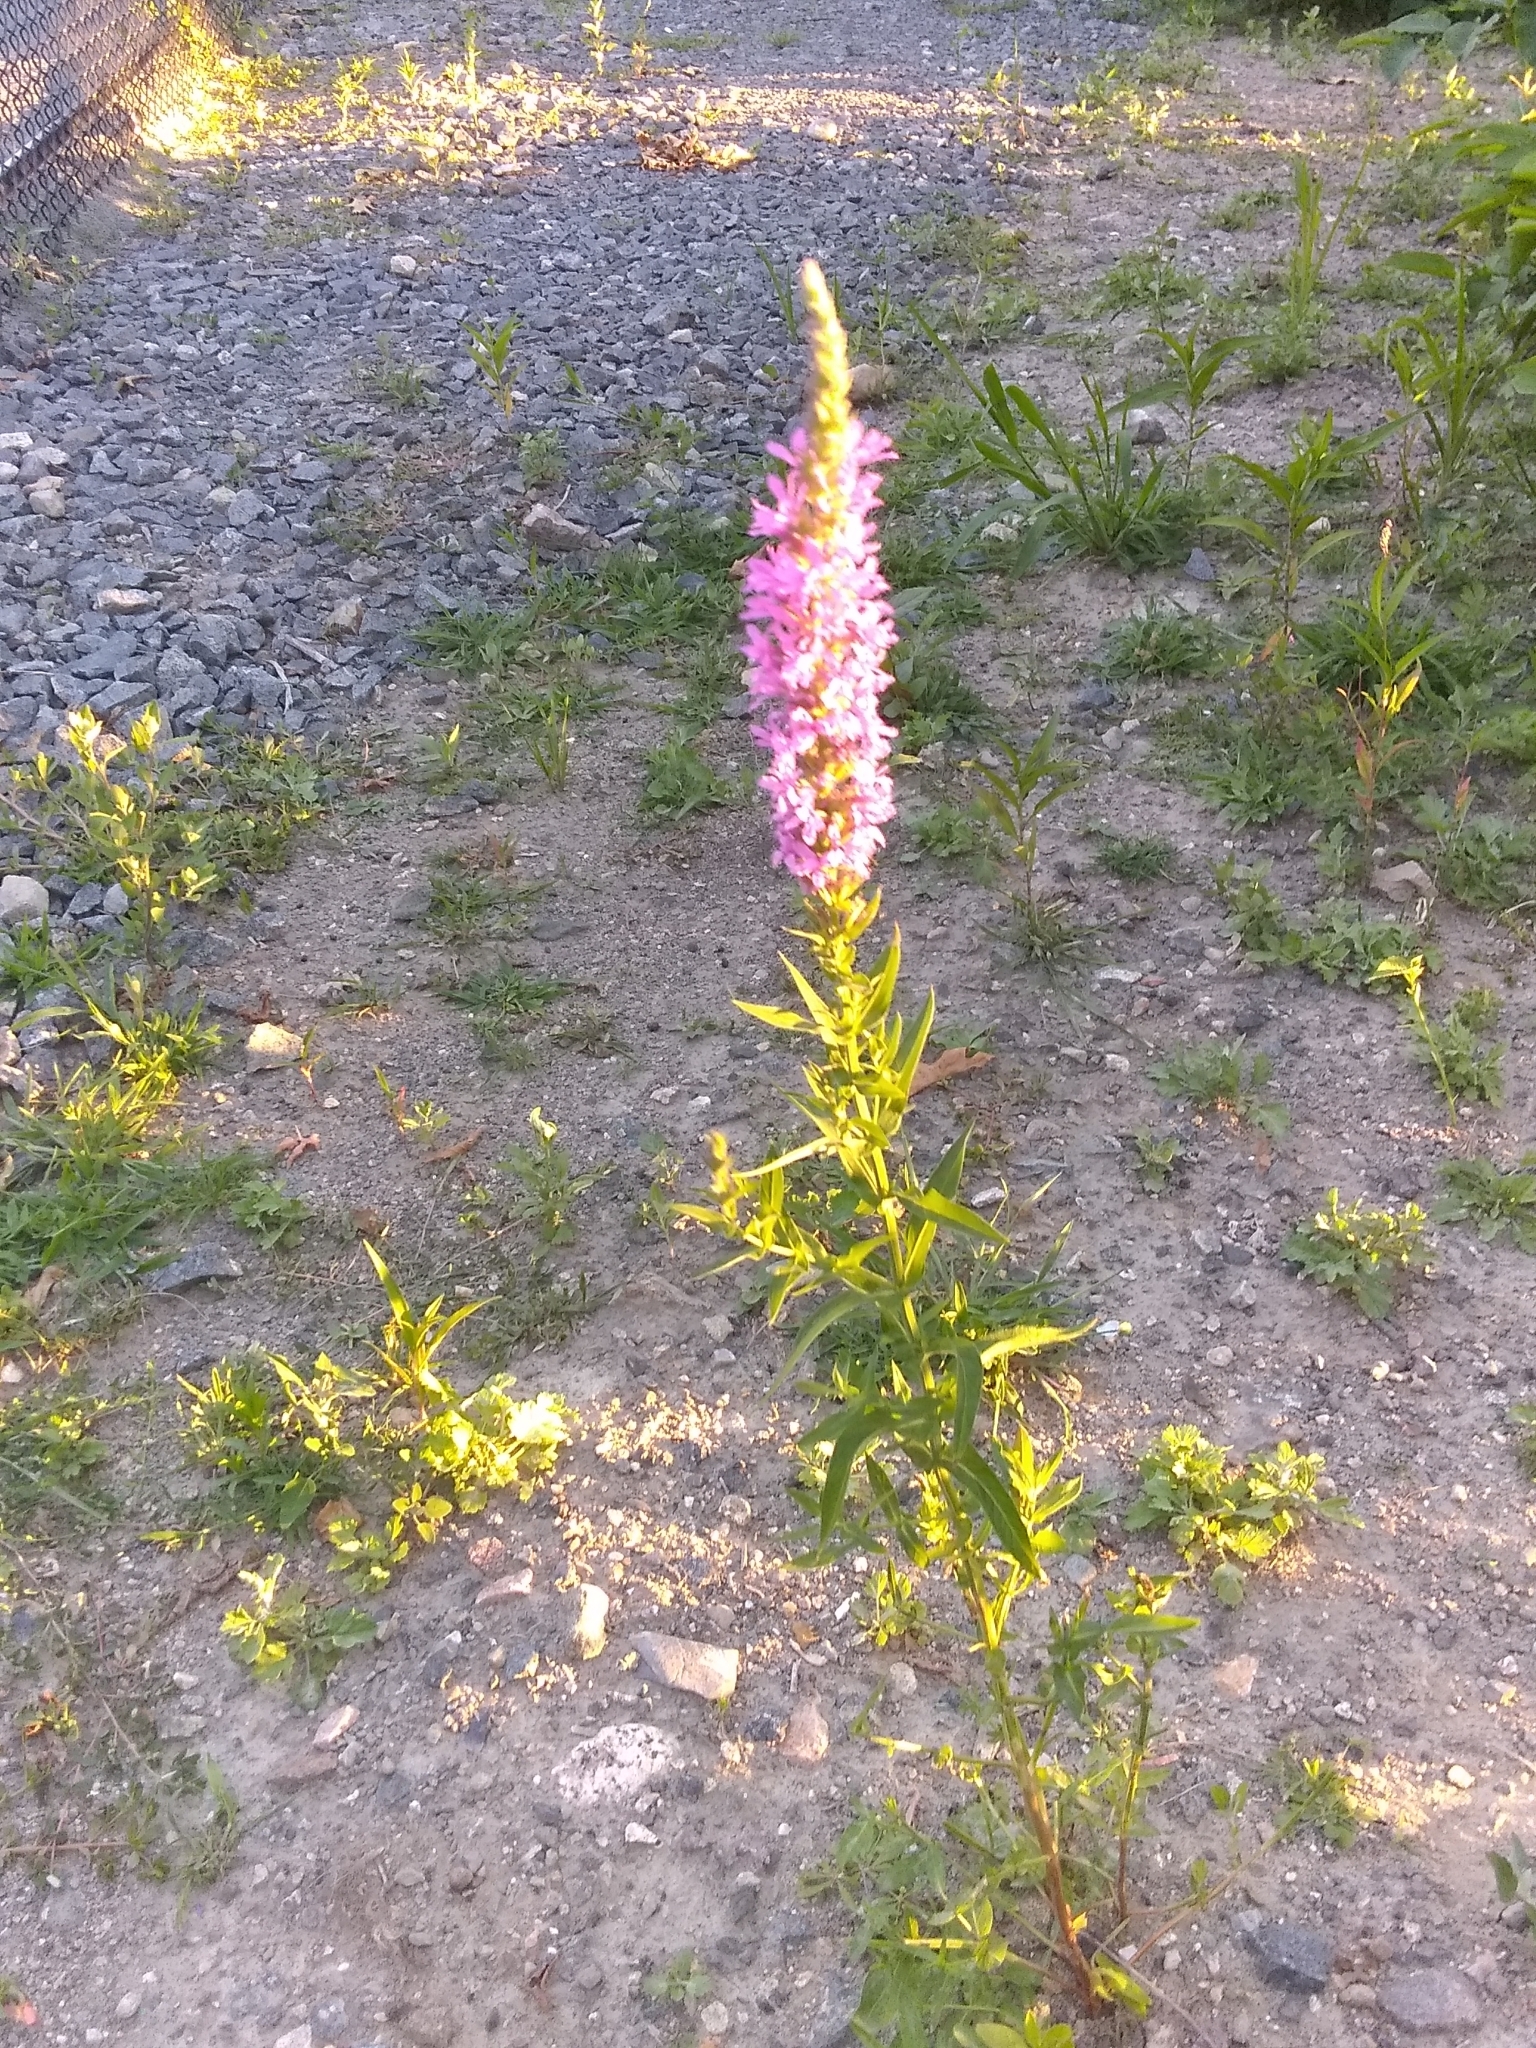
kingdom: Plantae
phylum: Tracheophyta
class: Magnoliopsida
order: Myrtales
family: Lythraceae
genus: Lythrum
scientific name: Lythrum salicaria
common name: Purple loosestrife
